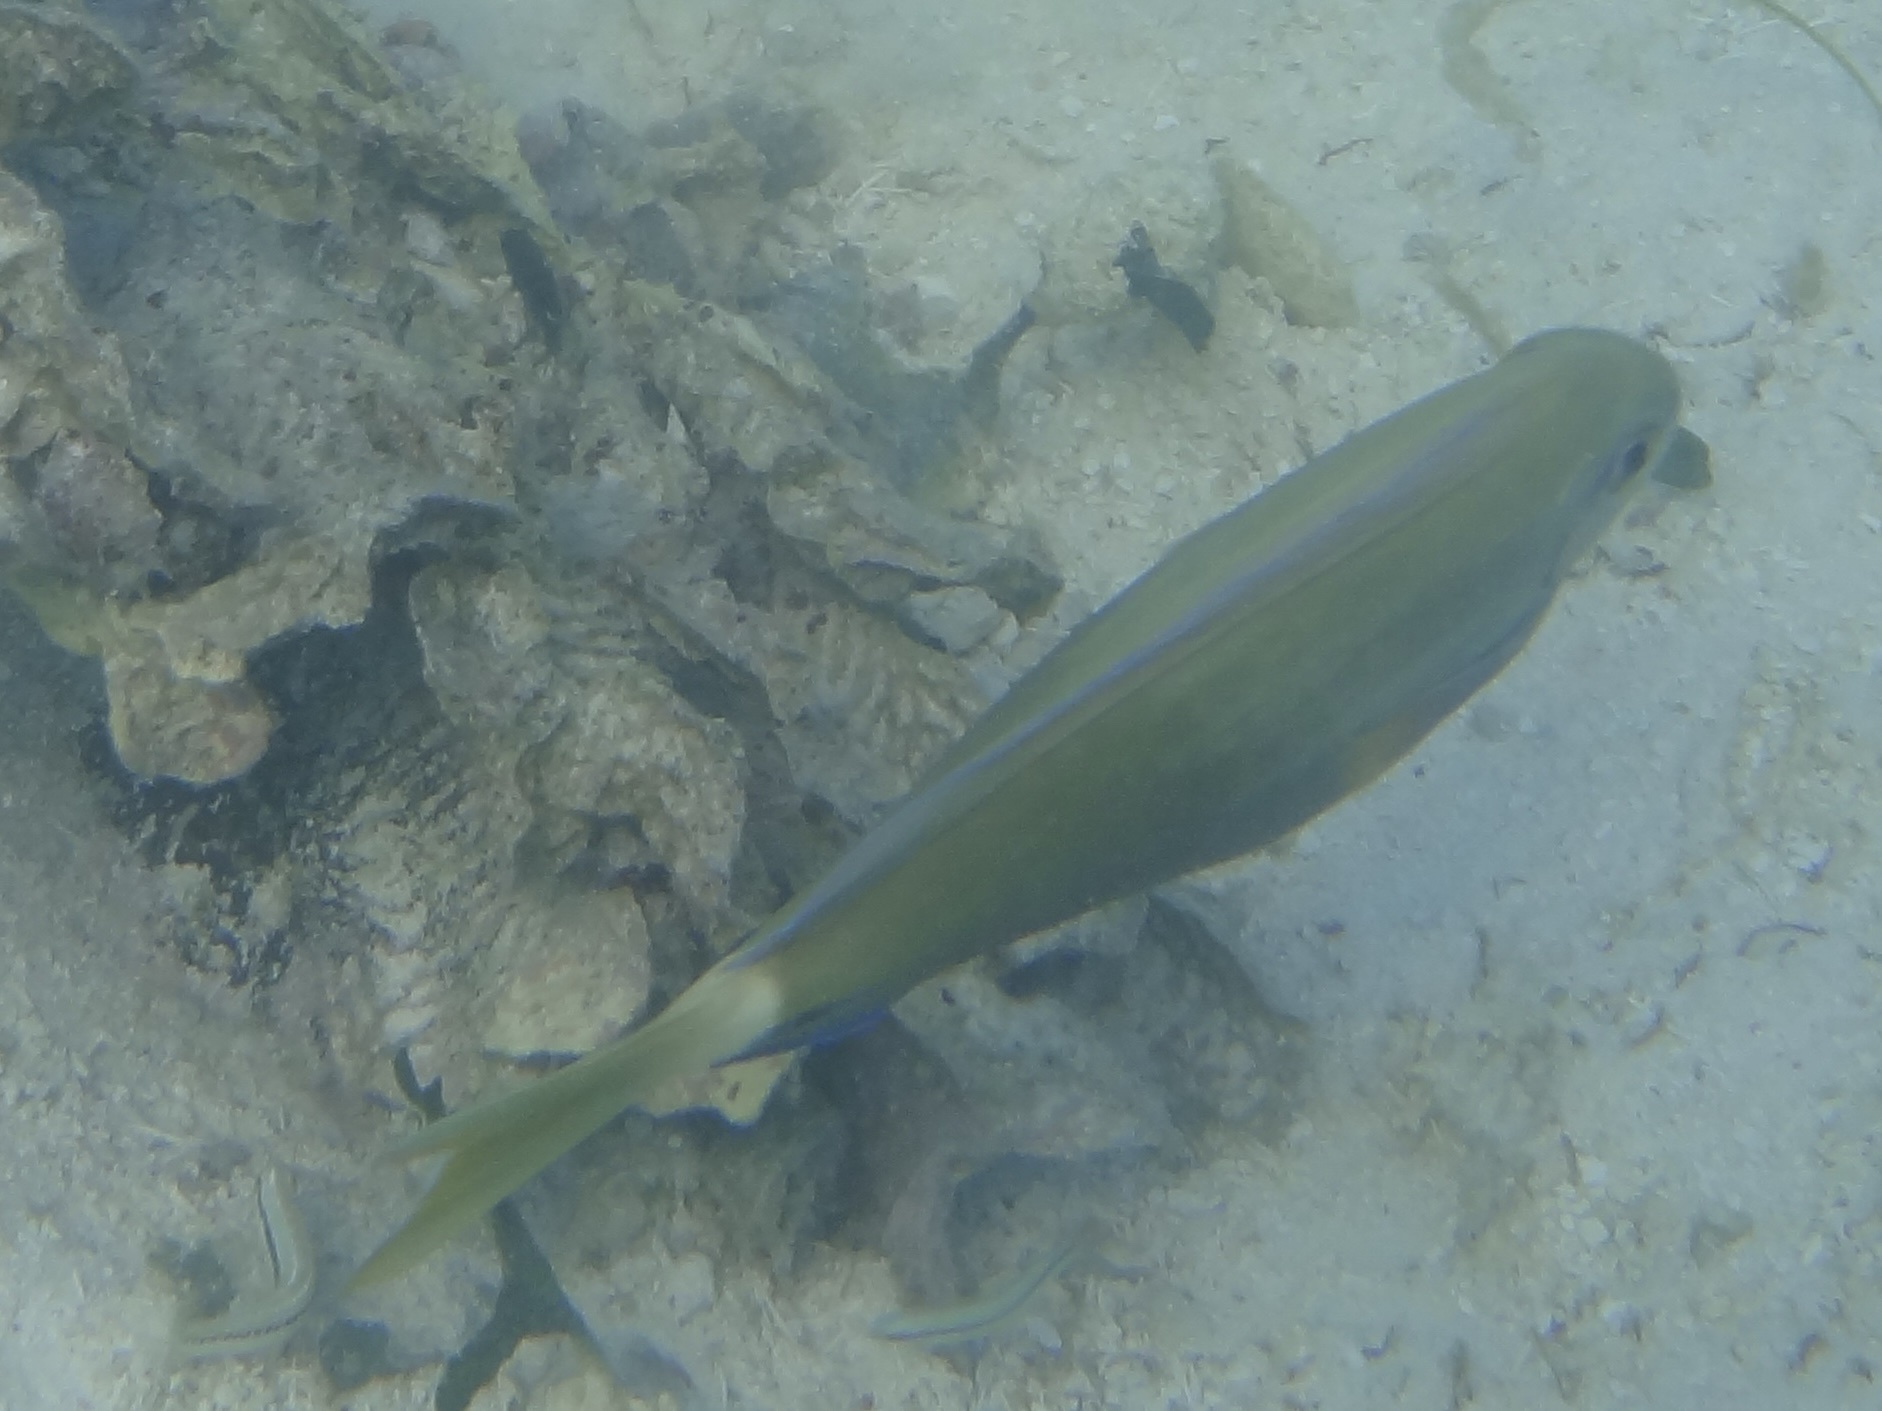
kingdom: Animalia
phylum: Chordata
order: Perciformes
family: Acanthuridae
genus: Acanthurus
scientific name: Acanthurus bahianus
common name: Ocean surgeon
